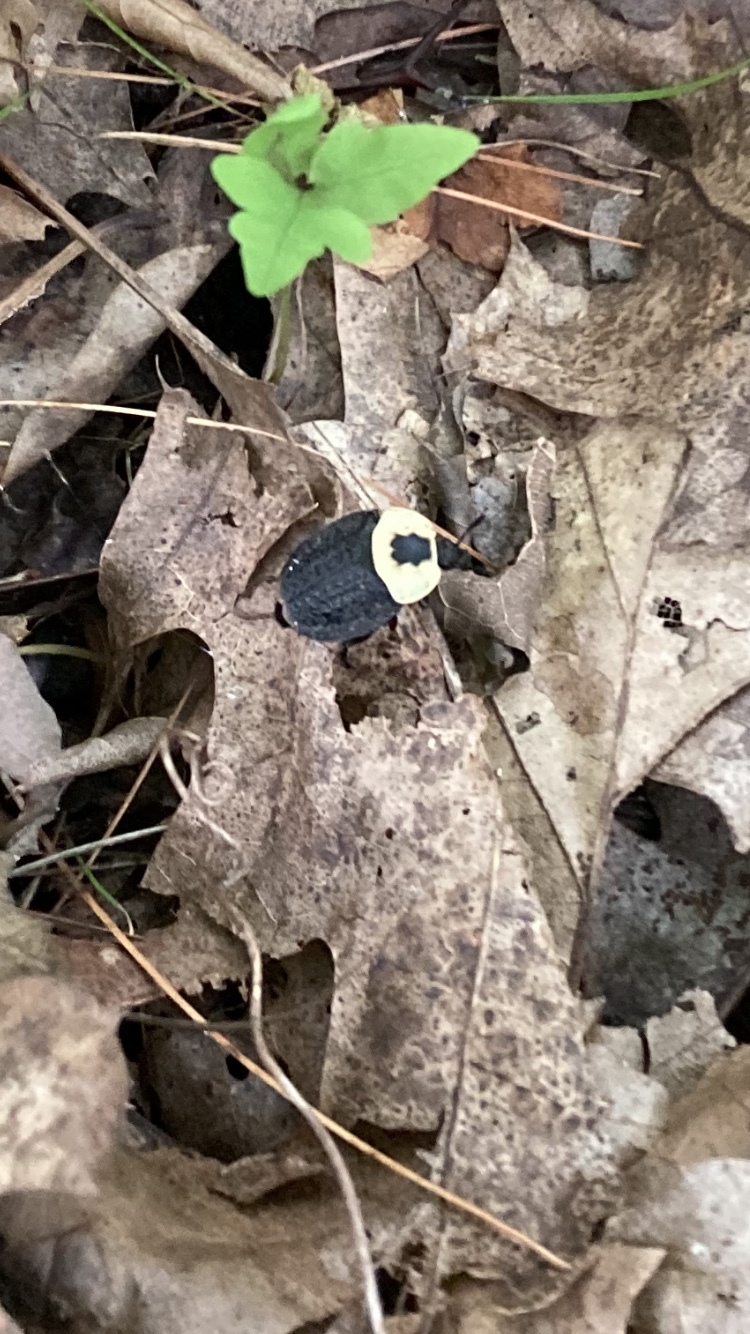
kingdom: Animalia
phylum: Arthropoda
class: Insecta
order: Coleoptera
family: Staphylinidae
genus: Necrophila
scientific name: Necrophila americana
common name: American carrion beetle
